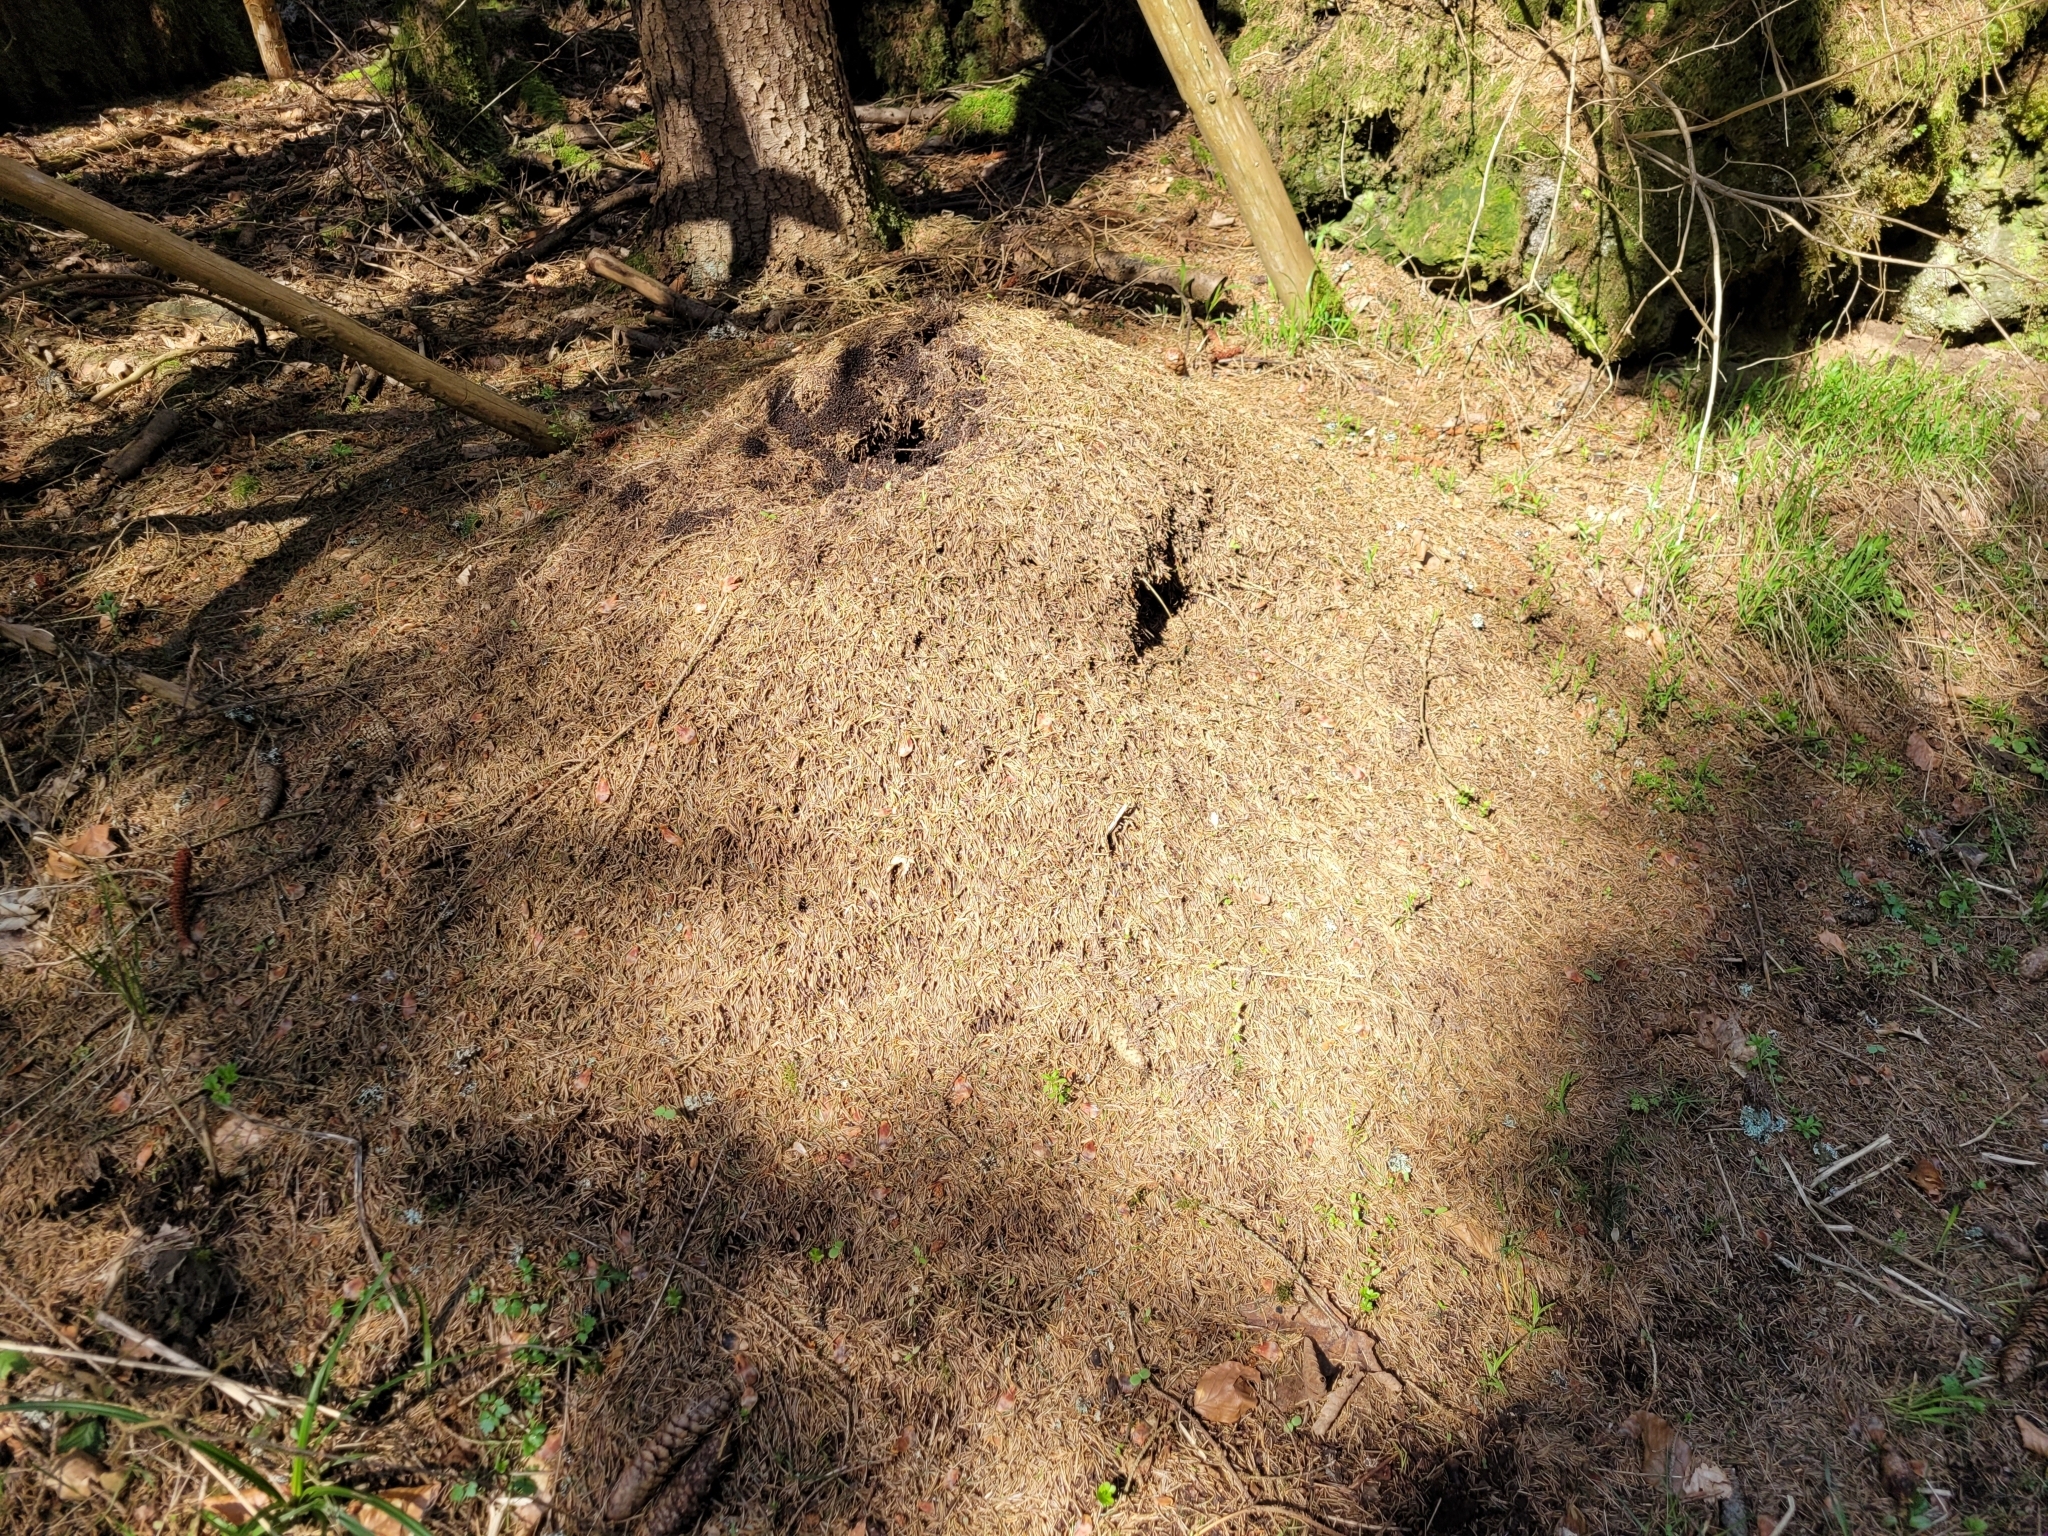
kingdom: Animalia
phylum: Arthropoda
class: Insecta
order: Hymenoptera
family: Formicidae
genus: Formica
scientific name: Formica
